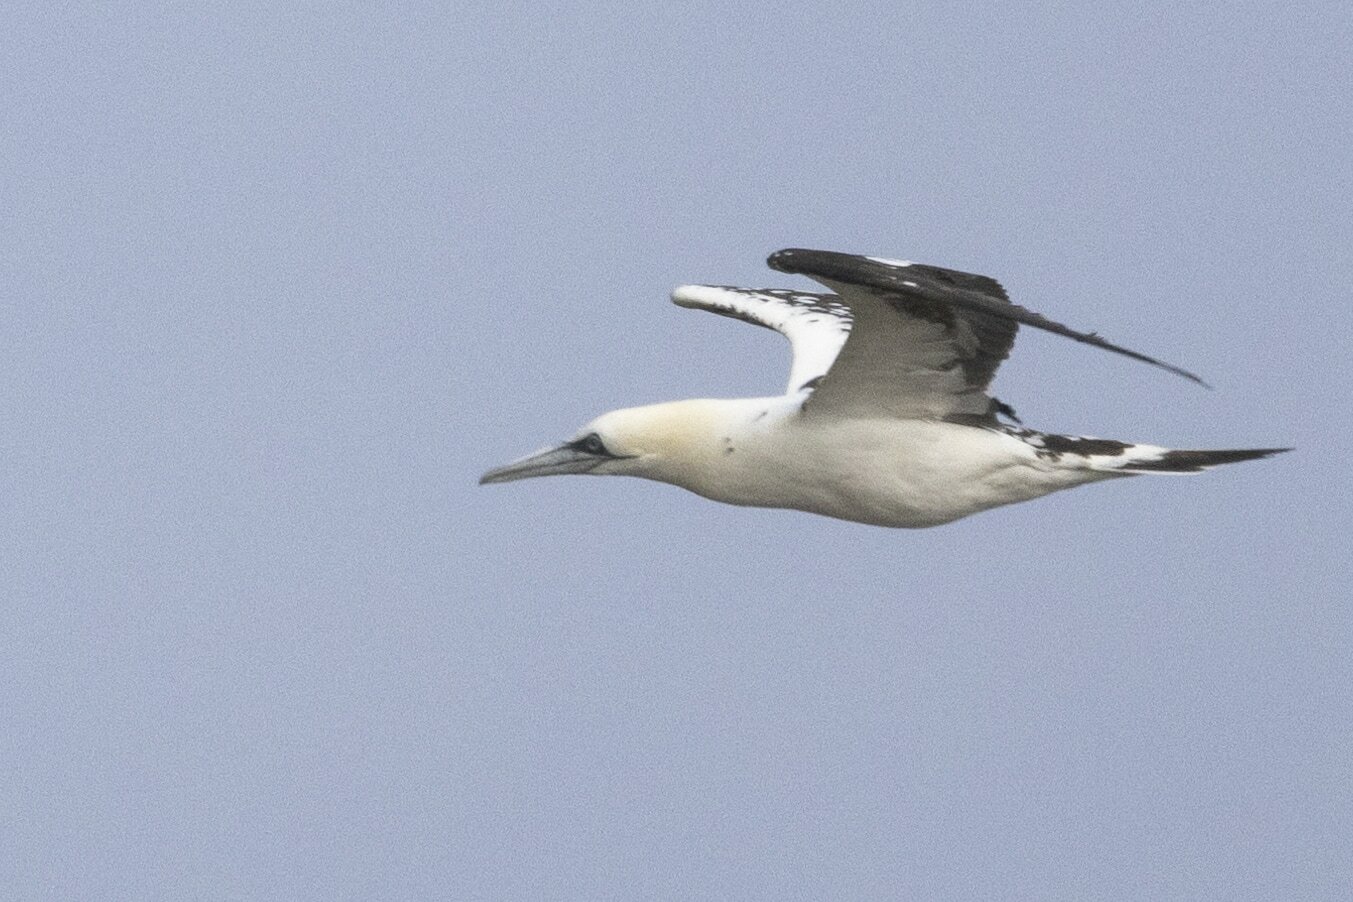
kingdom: Animalia
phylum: Chordata
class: Aves
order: Suliformes
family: Sulidae
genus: Morus
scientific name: Morus bassanus
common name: Northern gannet
